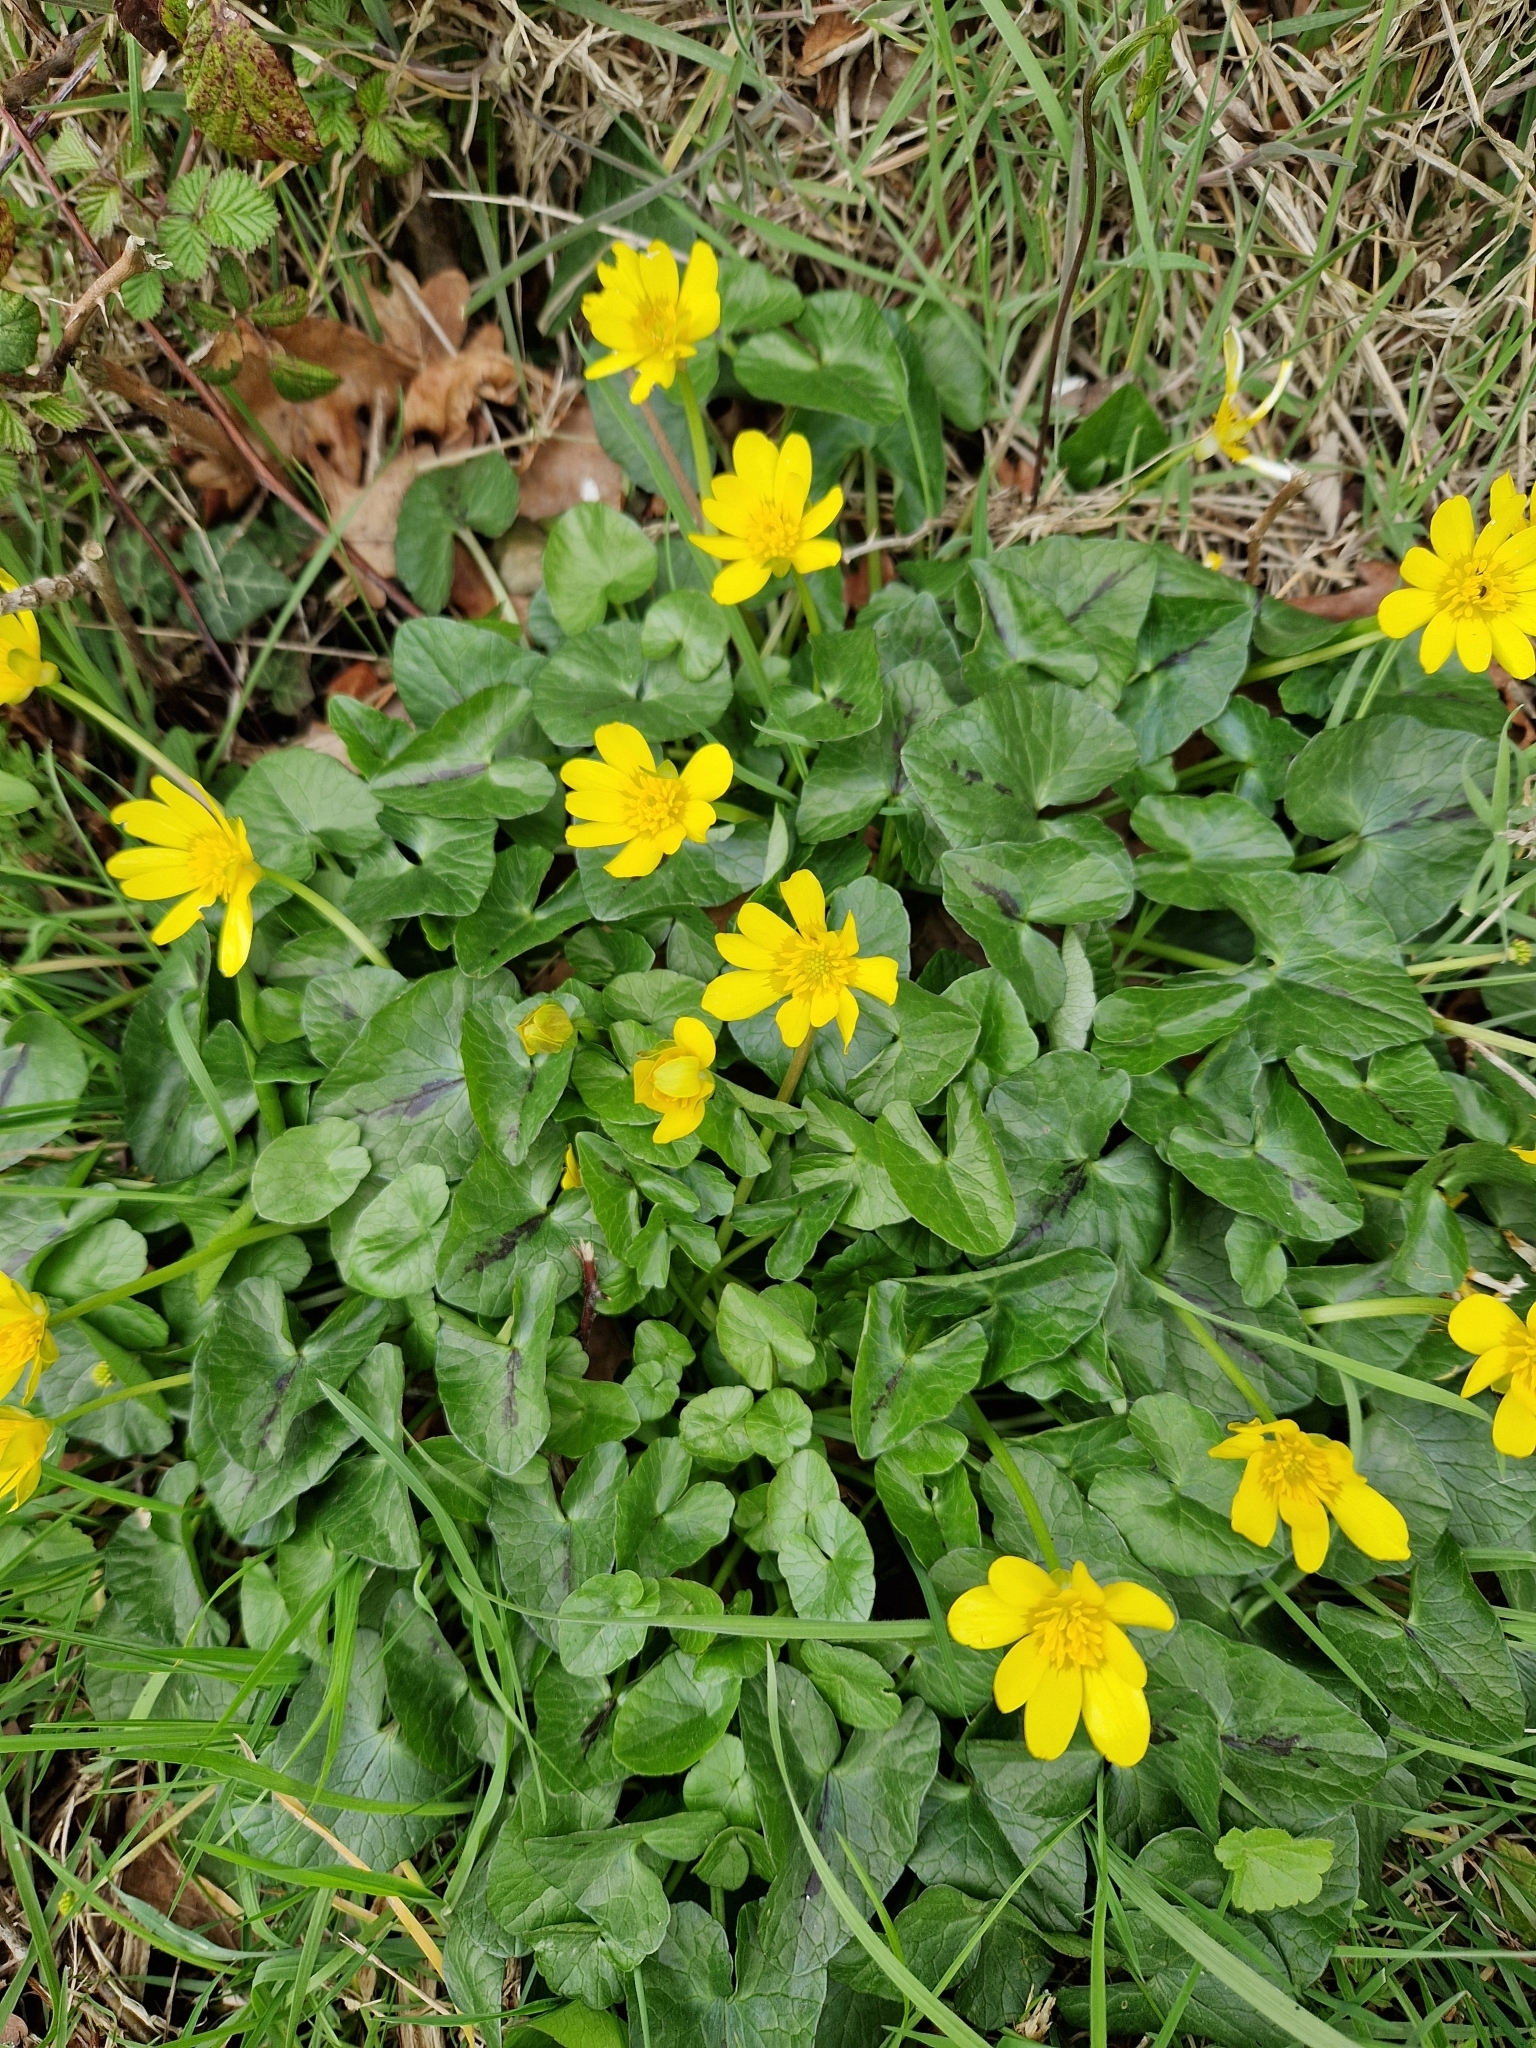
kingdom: Plantae
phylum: Tracheophyta
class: Magnoliopsida
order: Ranunculales
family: Ranunculaceae
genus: Ficaria
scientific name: Ficaria verna
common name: Lesser celandine
